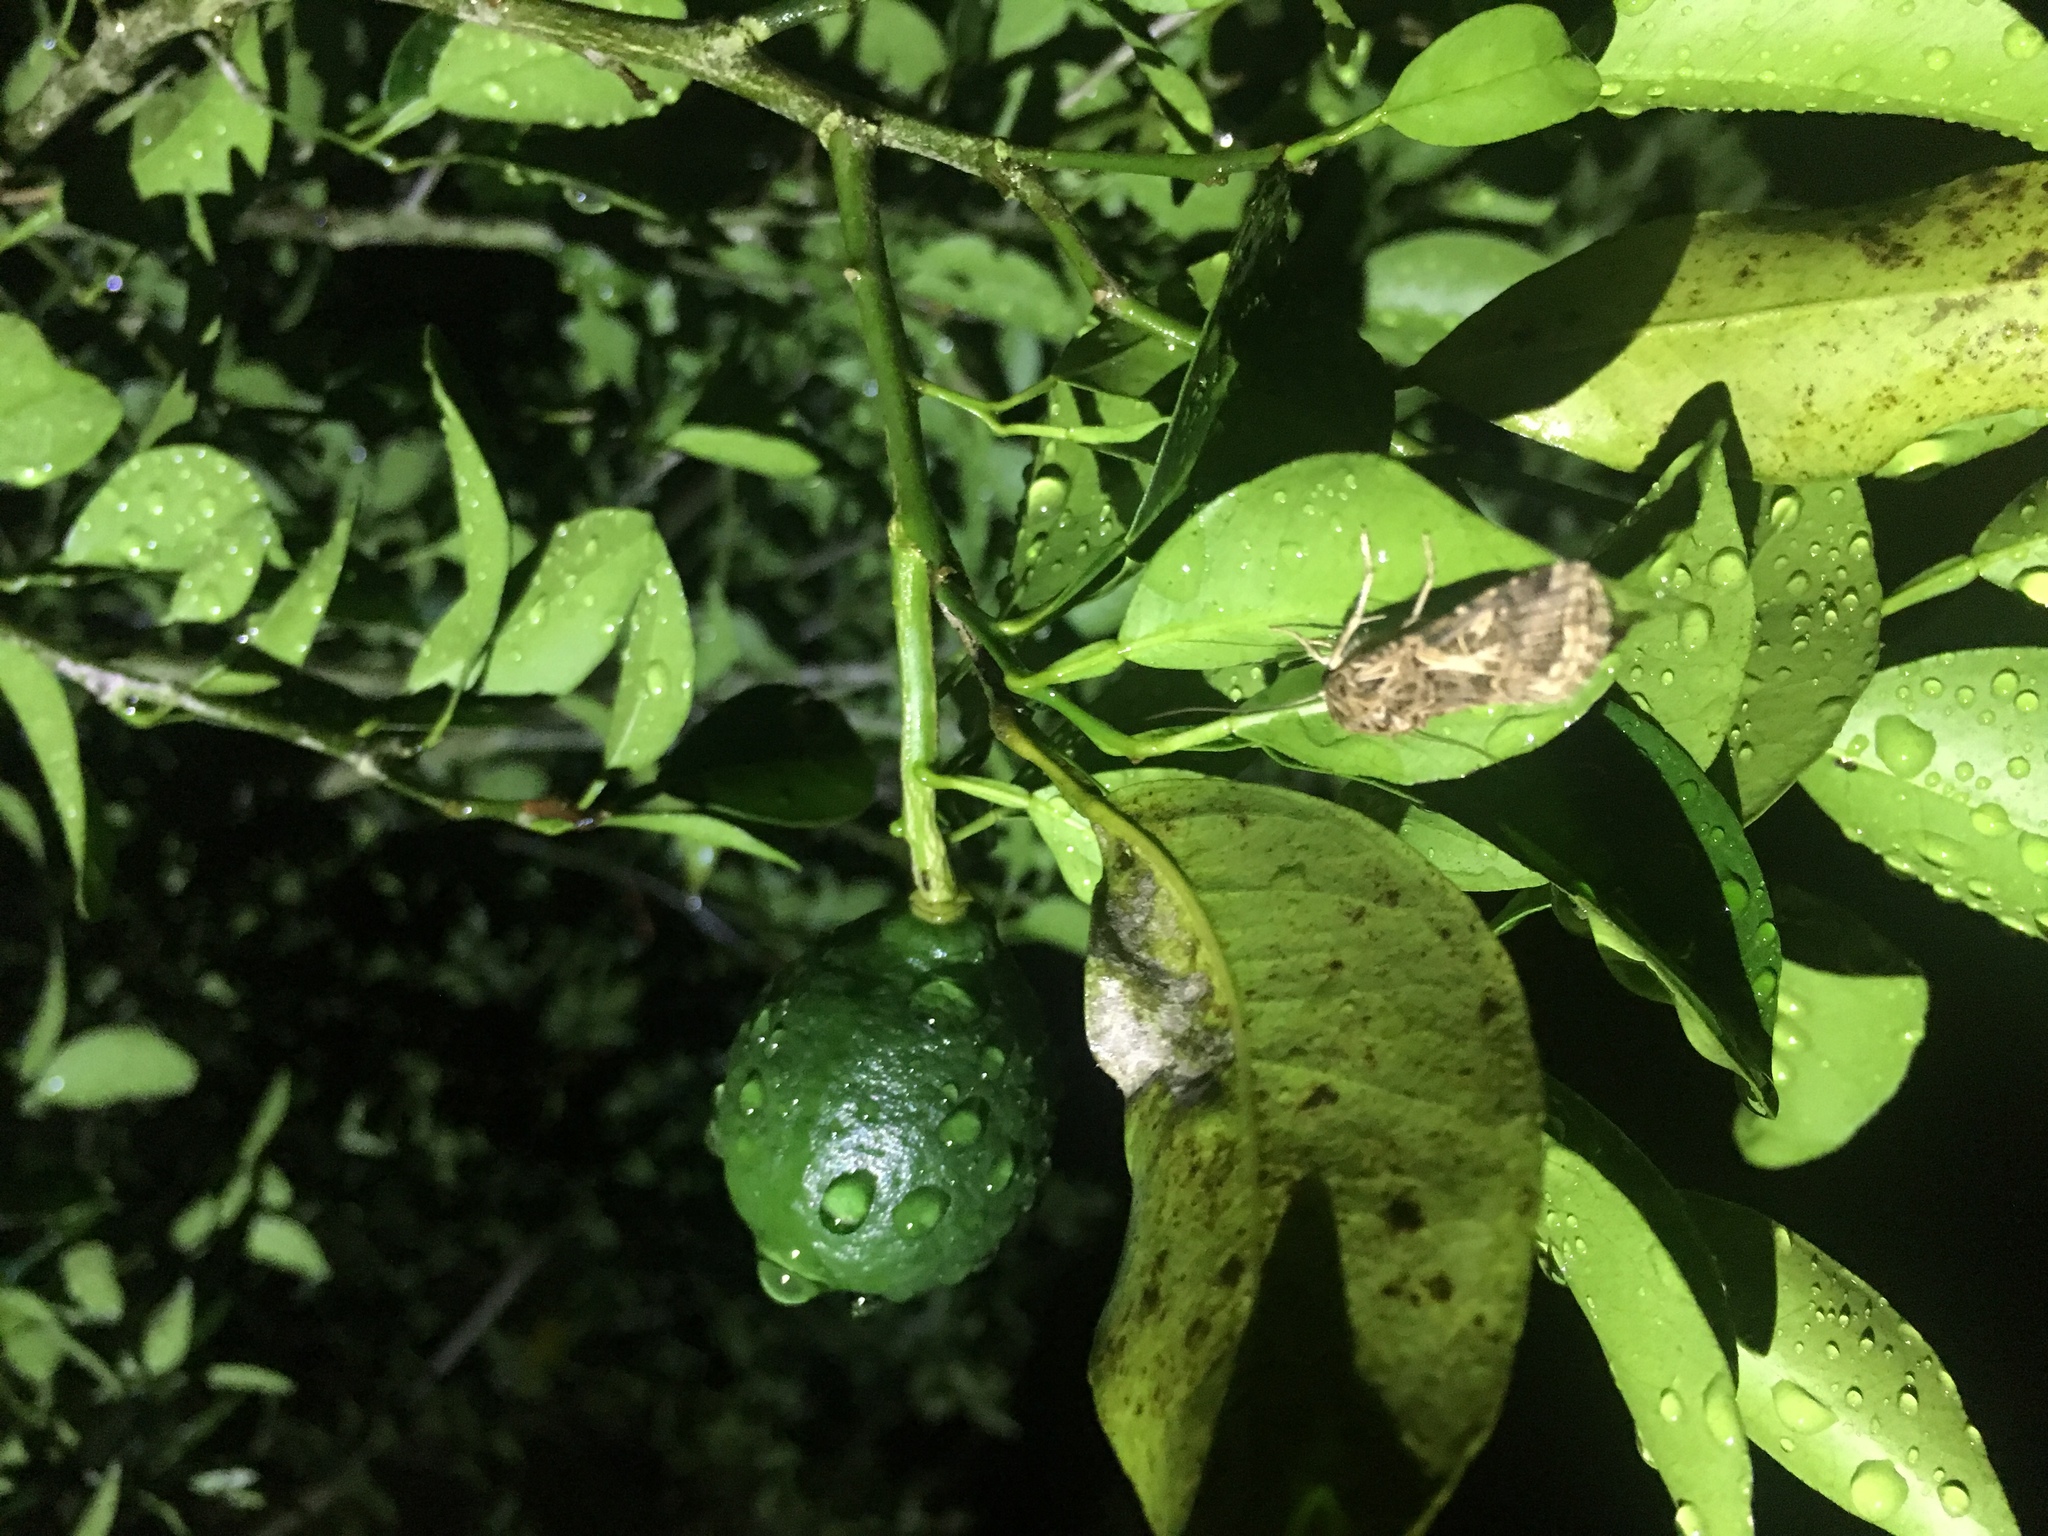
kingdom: Animalia
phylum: Arthropoda
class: Insecta
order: Lepidoptera
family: Noctuidae
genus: Spodoptera
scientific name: Spodoptera litura
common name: Asian cotton leafworm
